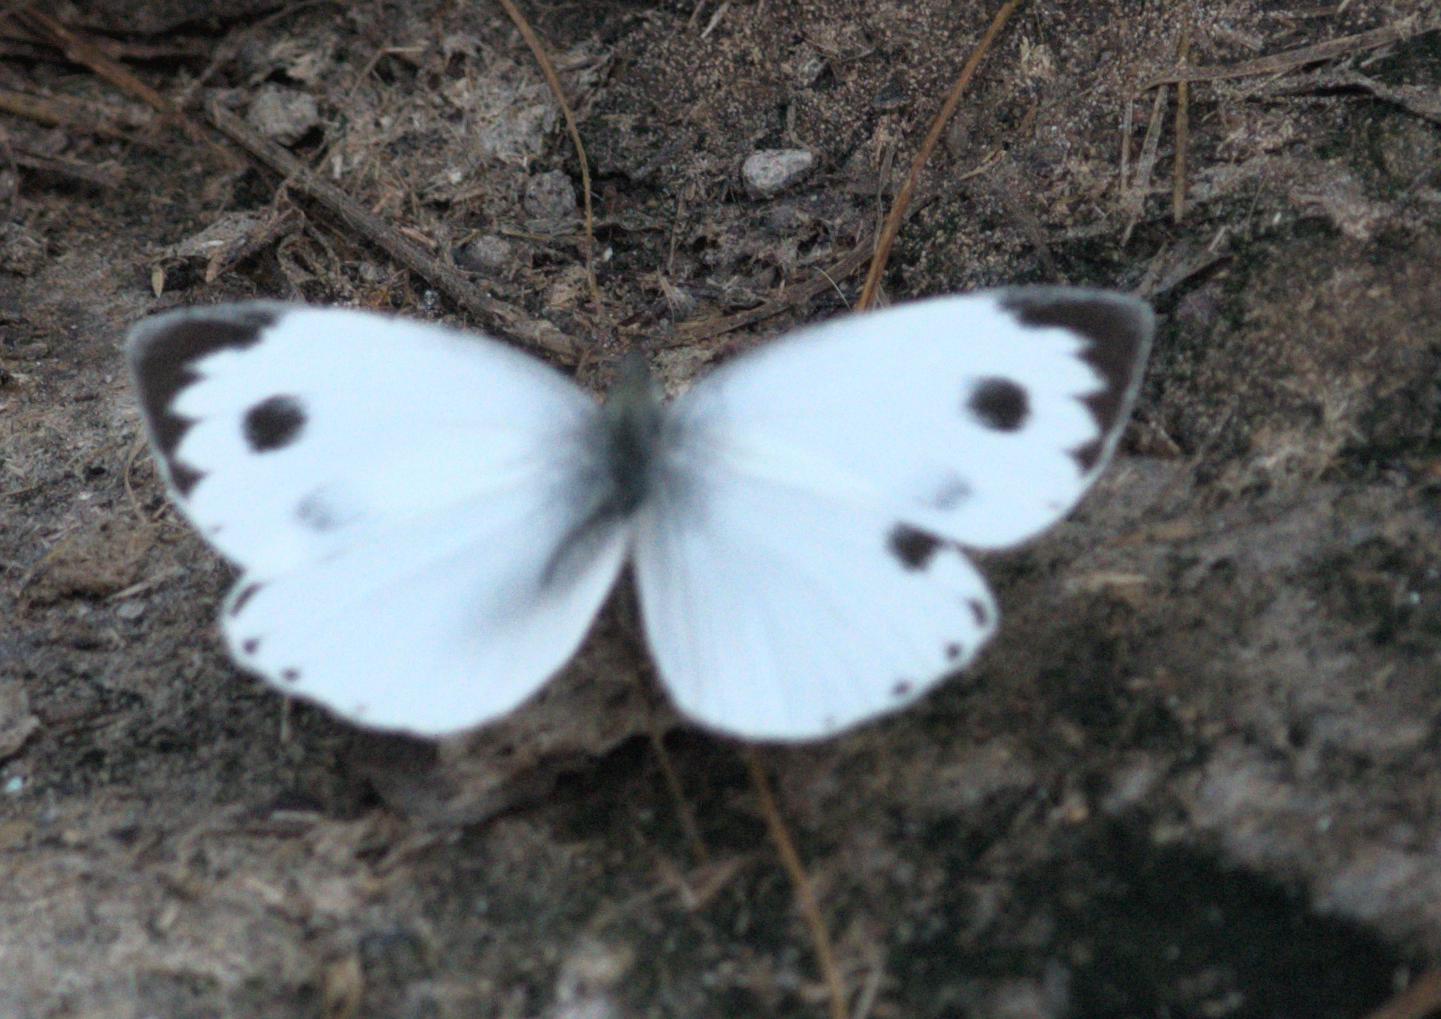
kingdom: Animalia
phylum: Arthropoda
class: Insecta
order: Lepidoptera
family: Pieridae
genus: Pieris
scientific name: Pieris canidia
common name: Indian cabbage white
